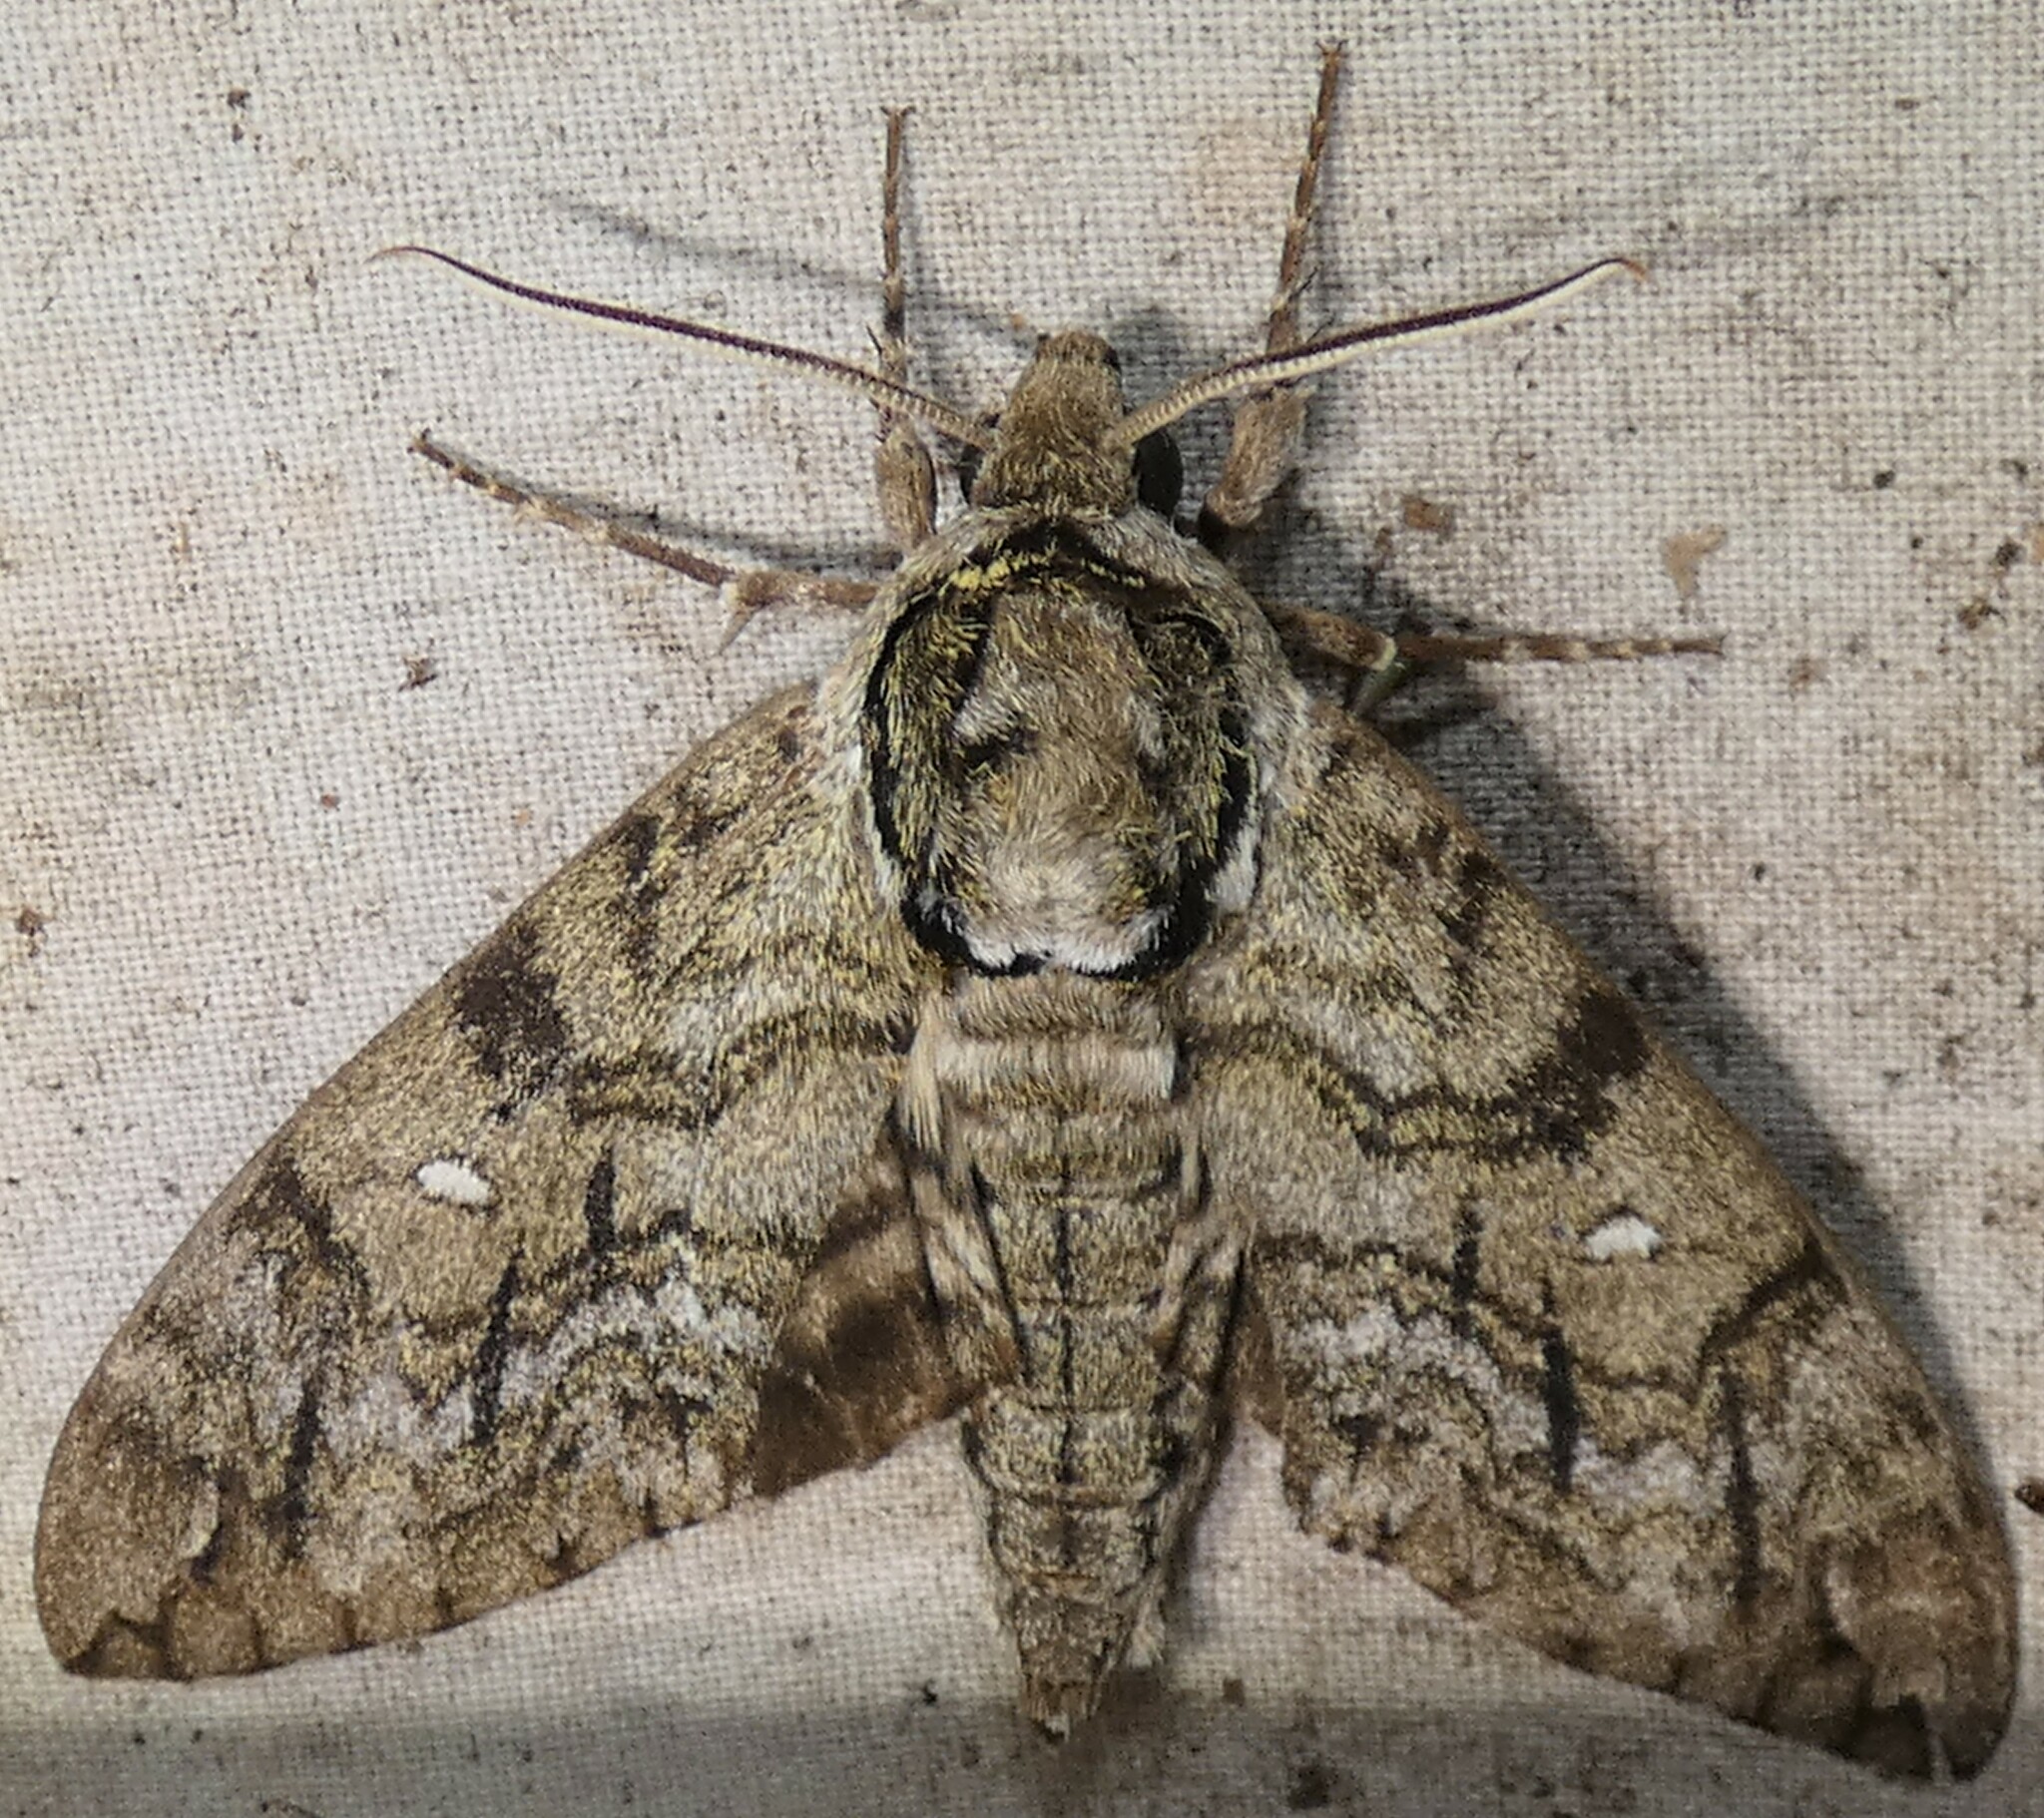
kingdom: Animalia
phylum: Arthropoda
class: Insecta
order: Lepidoptera
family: Sphingidae
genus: Ceratomia
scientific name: Ceratomia undulosa
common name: Waved sphinx
